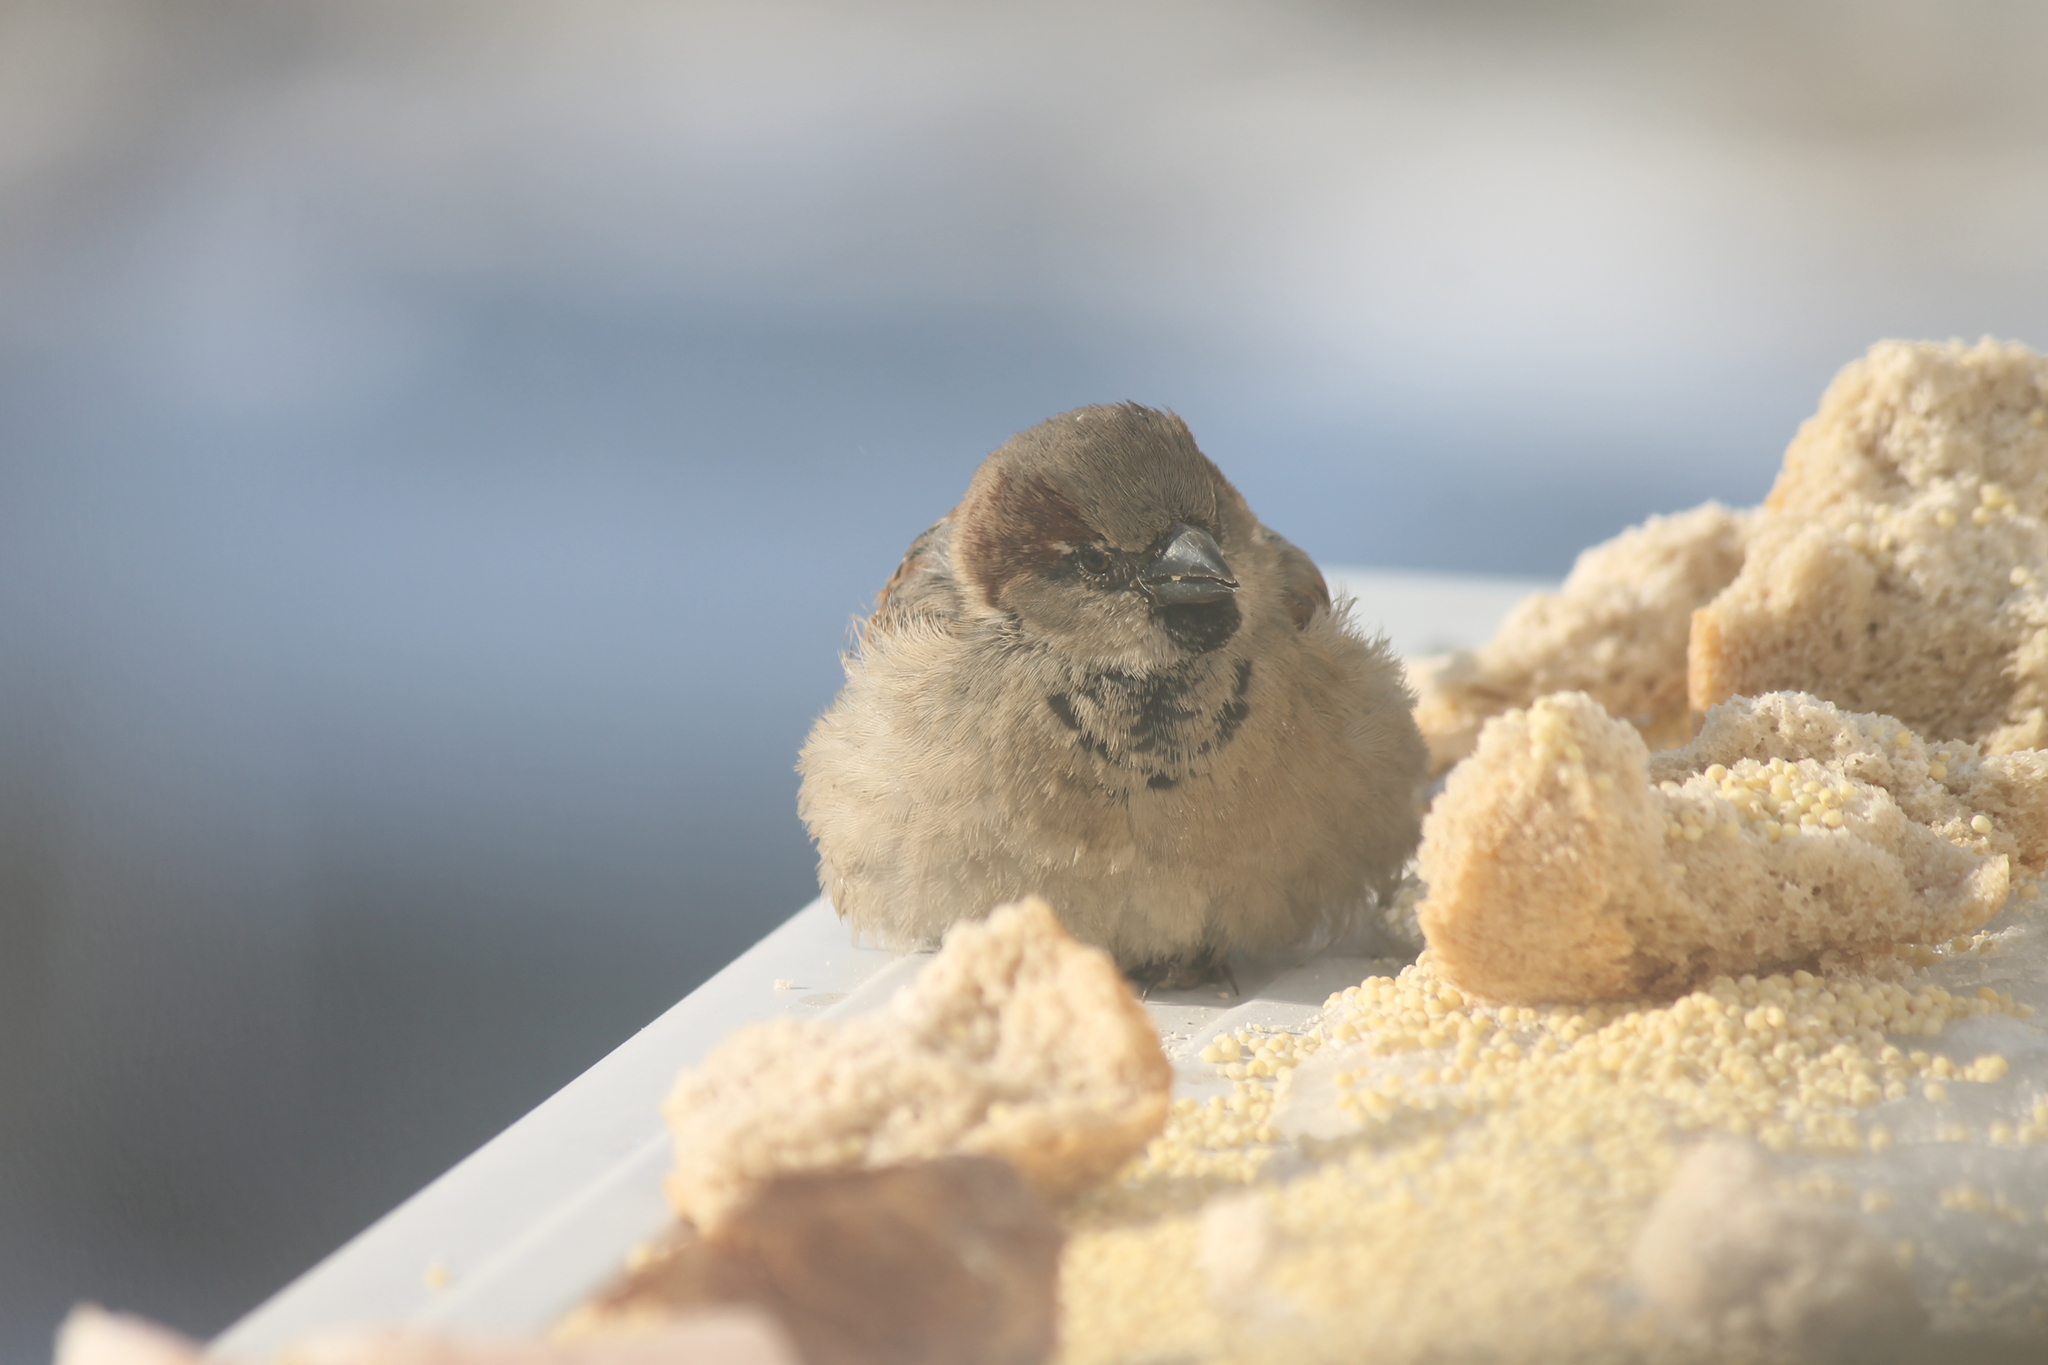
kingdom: Animalia
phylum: Chordata
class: Aves
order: Passeriformes
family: Passeridae
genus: Passer
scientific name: Passer domesticus
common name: House sparrow
